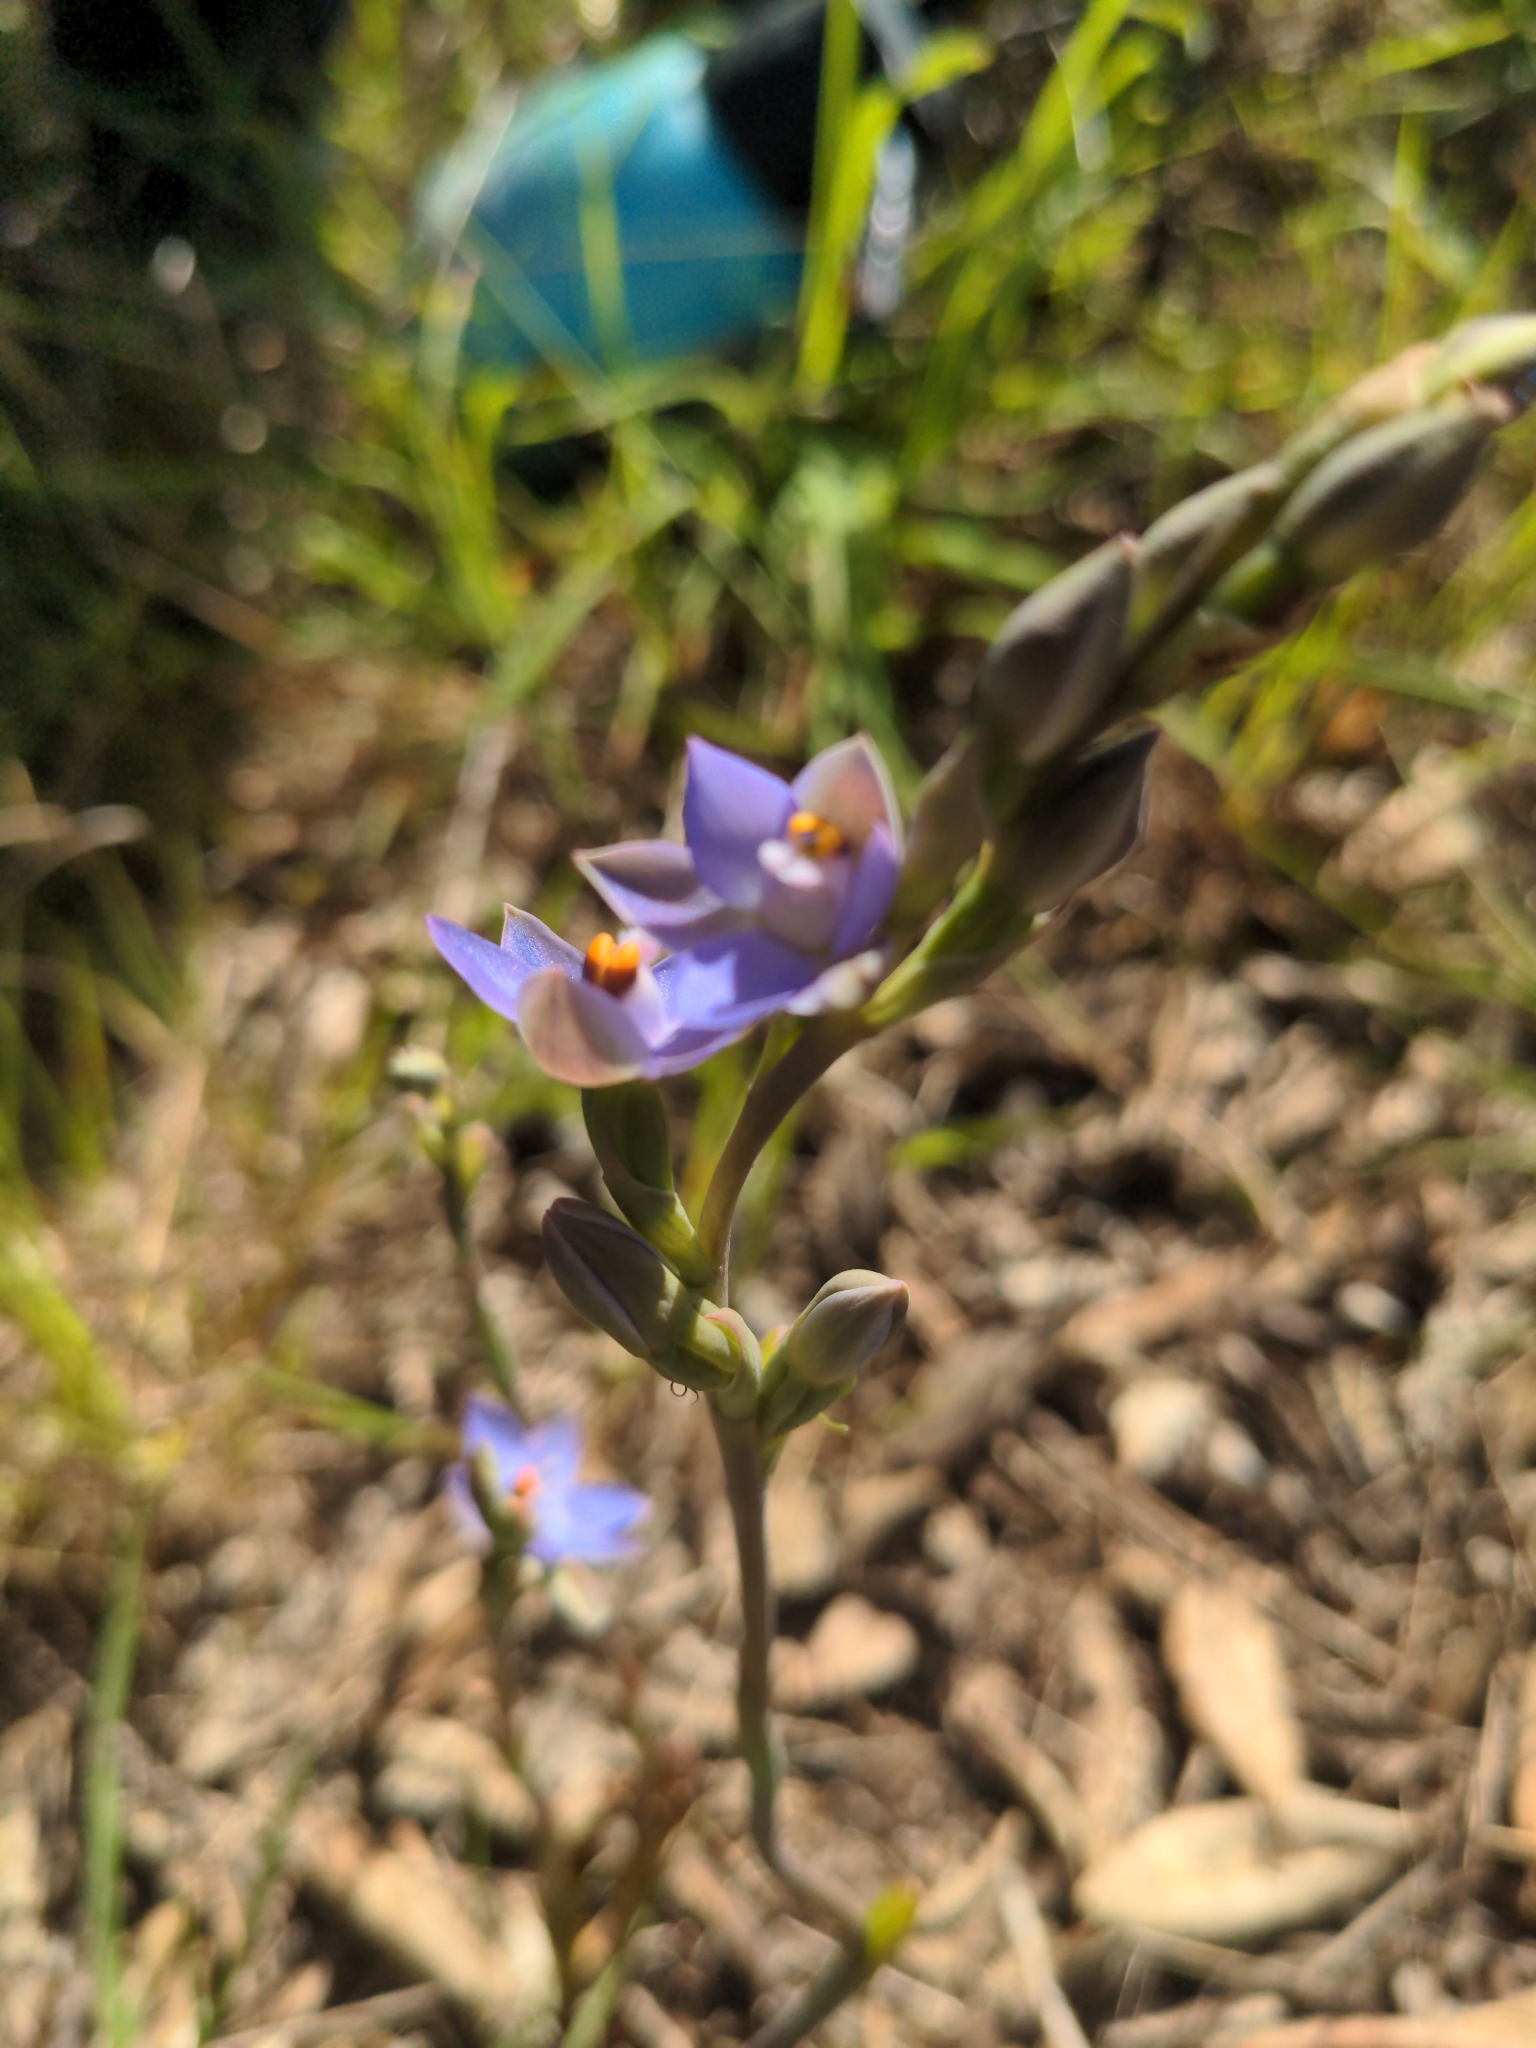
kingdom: Plantae
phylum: Tracheophyta
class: Liliopsida
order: Asparagales
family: Orchidaceae
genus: Thelymitra
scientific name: Thelymitra pauciflora
